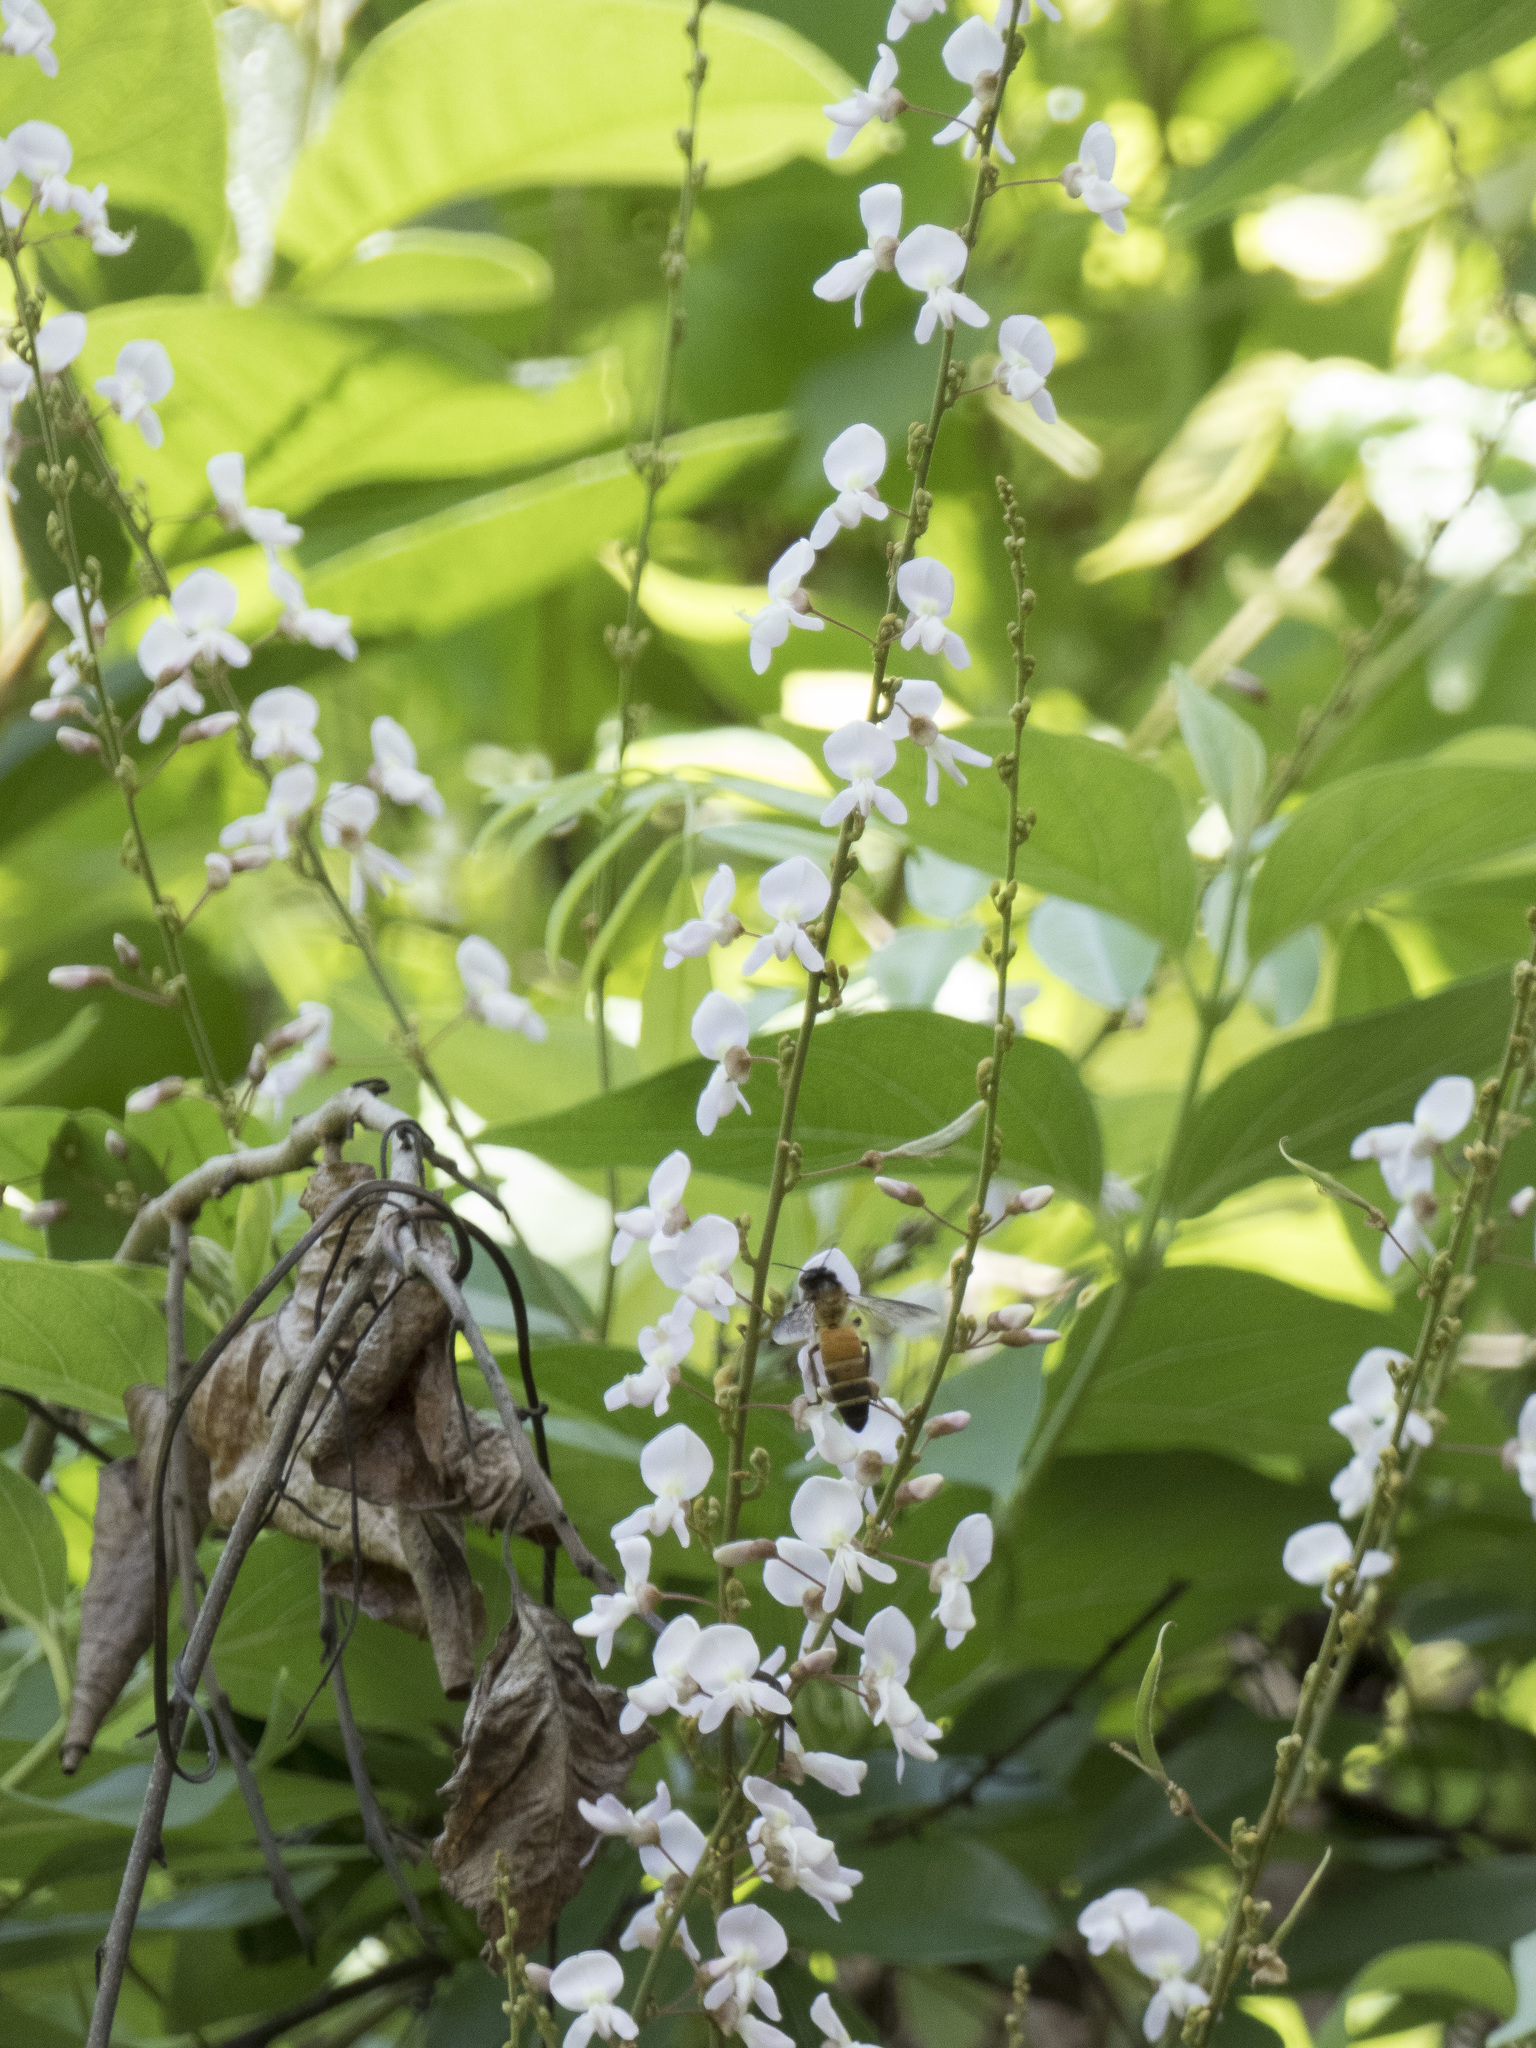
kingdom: Animalia
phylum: Arthropoda
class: Insecta
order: Hymenoptera
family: Apidae
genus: Apis
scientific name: Apis dorsata
